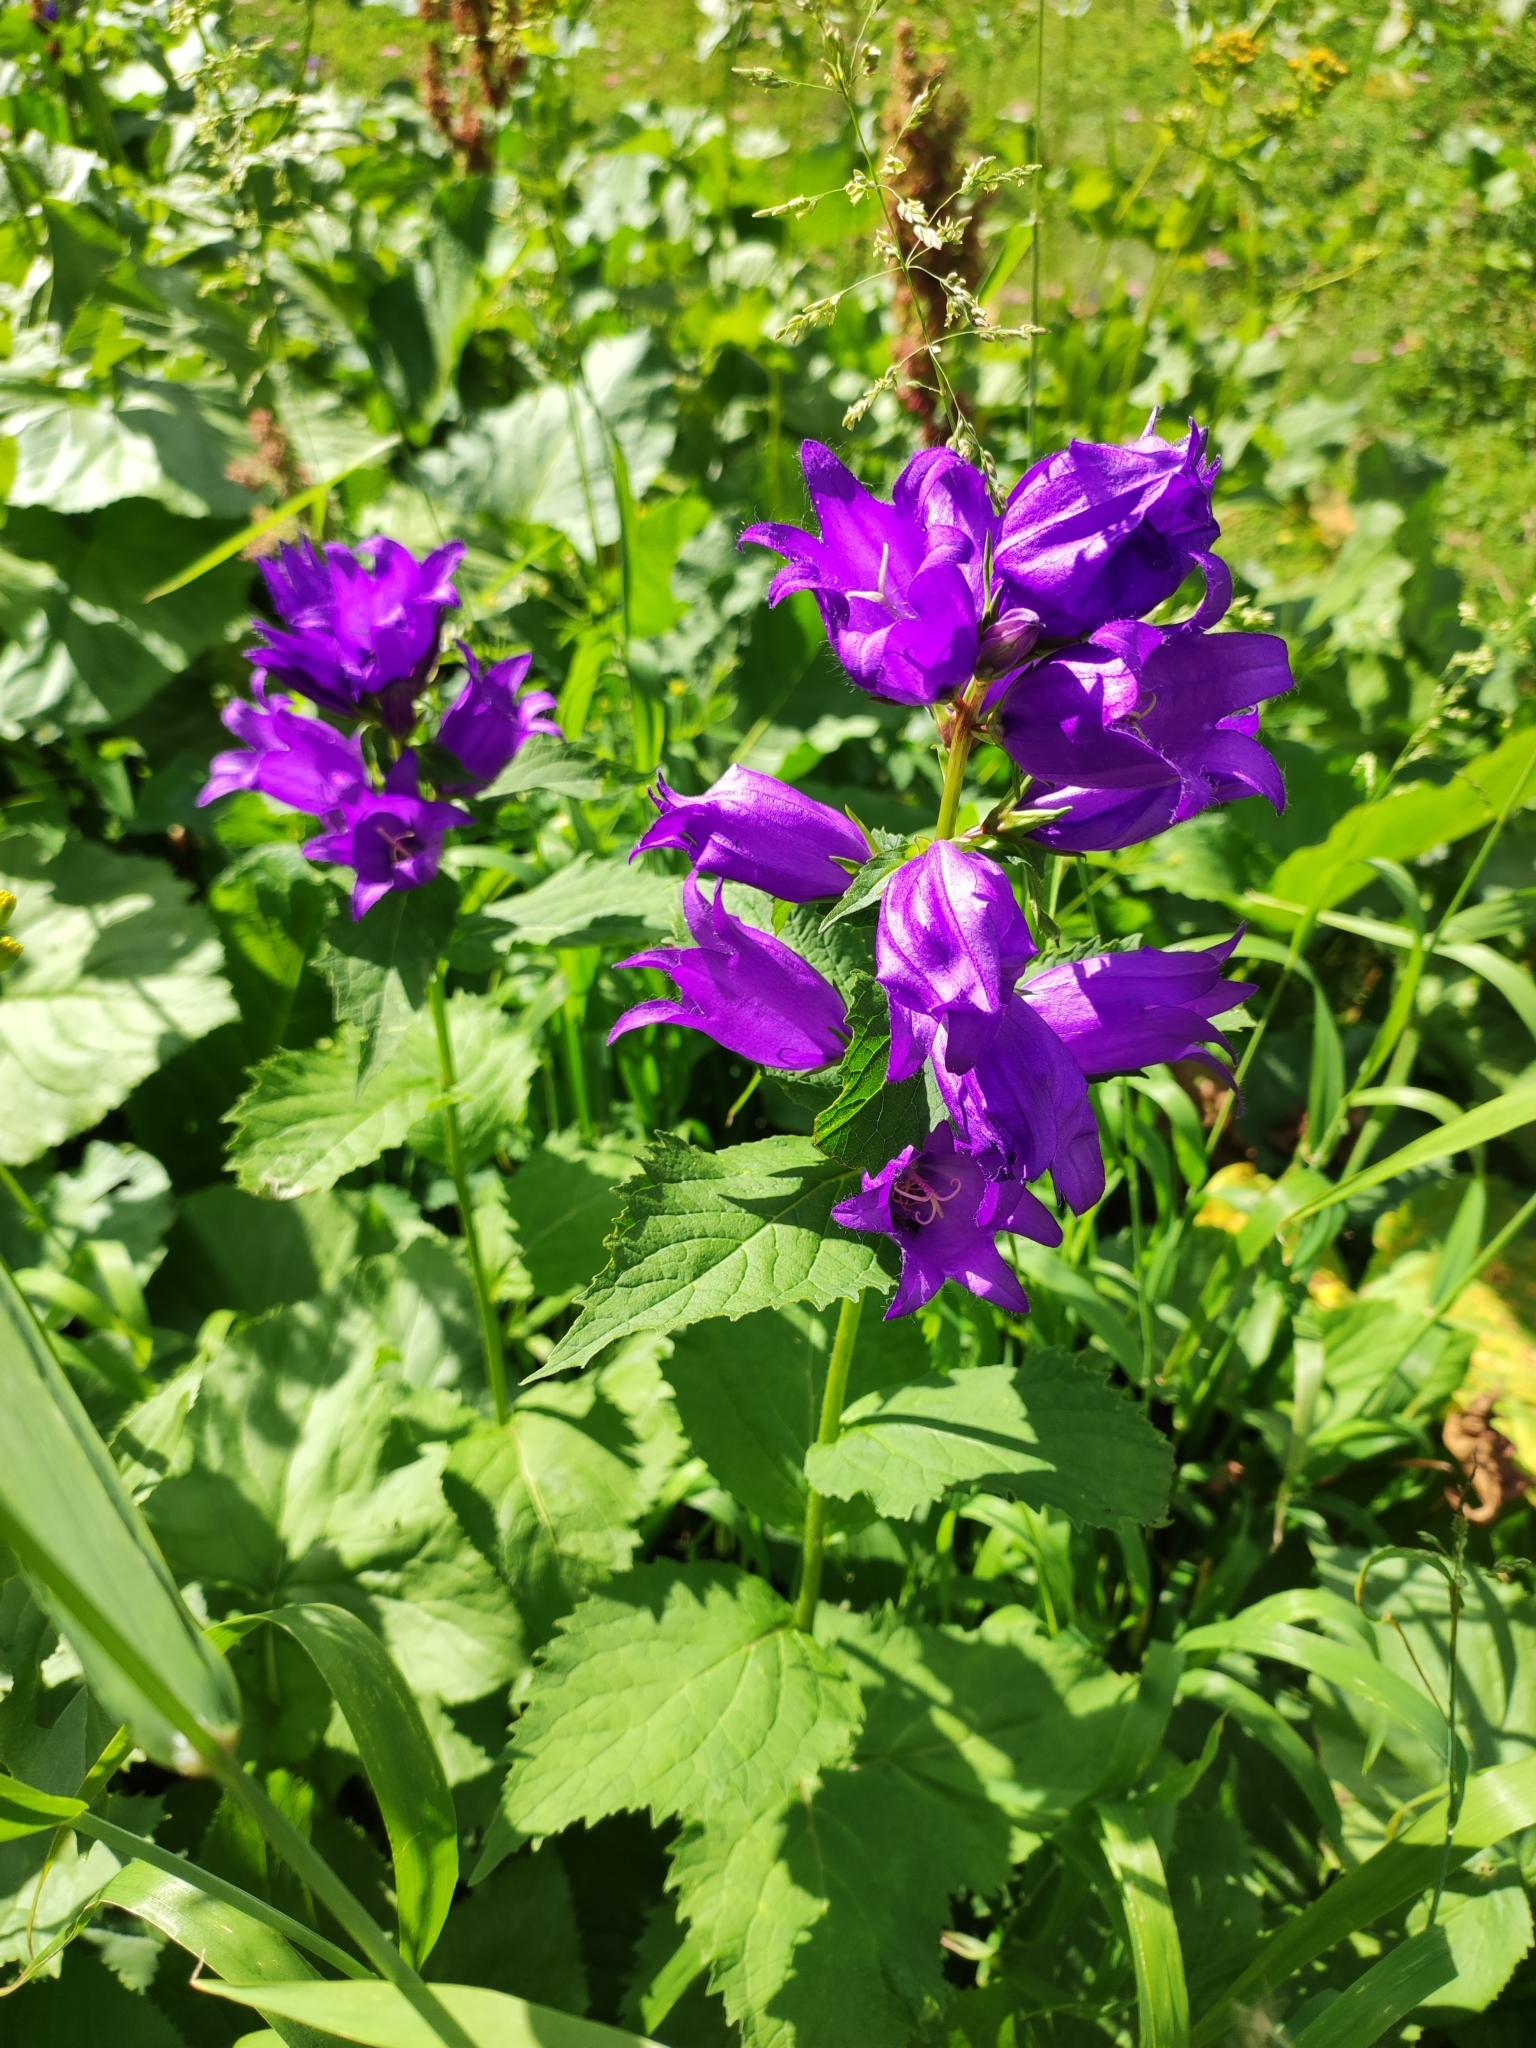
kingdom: Plantae
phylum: Tracheophyta
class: Magnoliopsida
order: Asterales
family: Campanulaceae
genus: Campanula
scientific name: Campanula latifolia
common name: Giant bellflower
